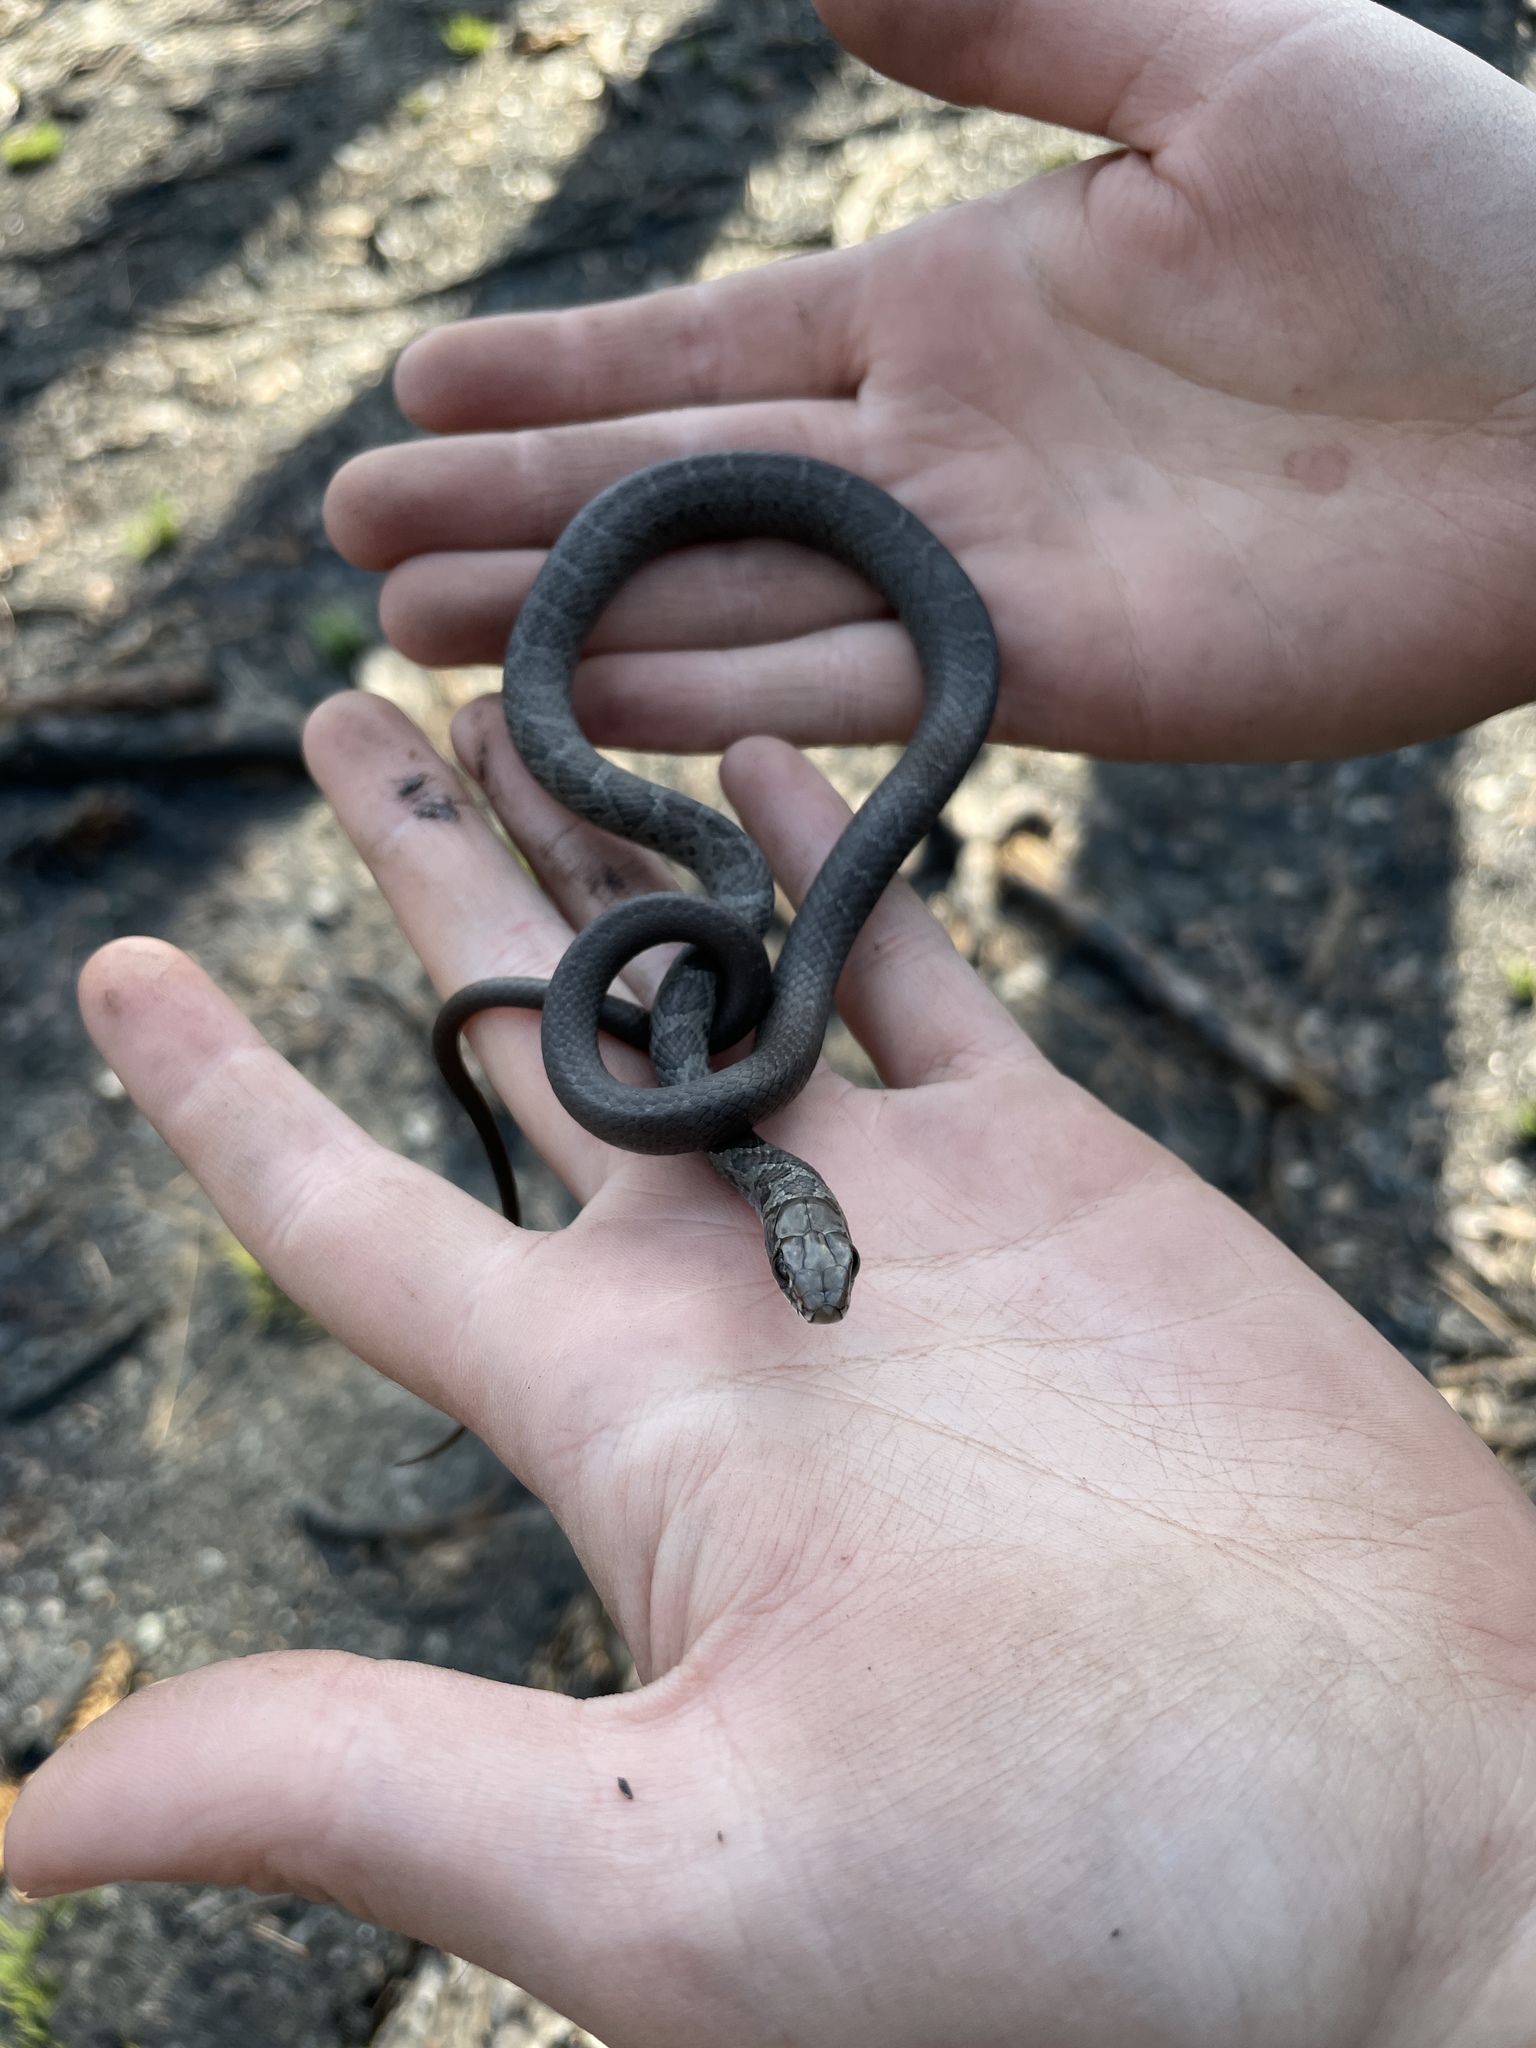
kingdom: Animalia
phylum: Chordata
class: Squamata
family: Colubridae
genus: Coluber
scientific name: Coluber constrictor
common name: Eastern racer
